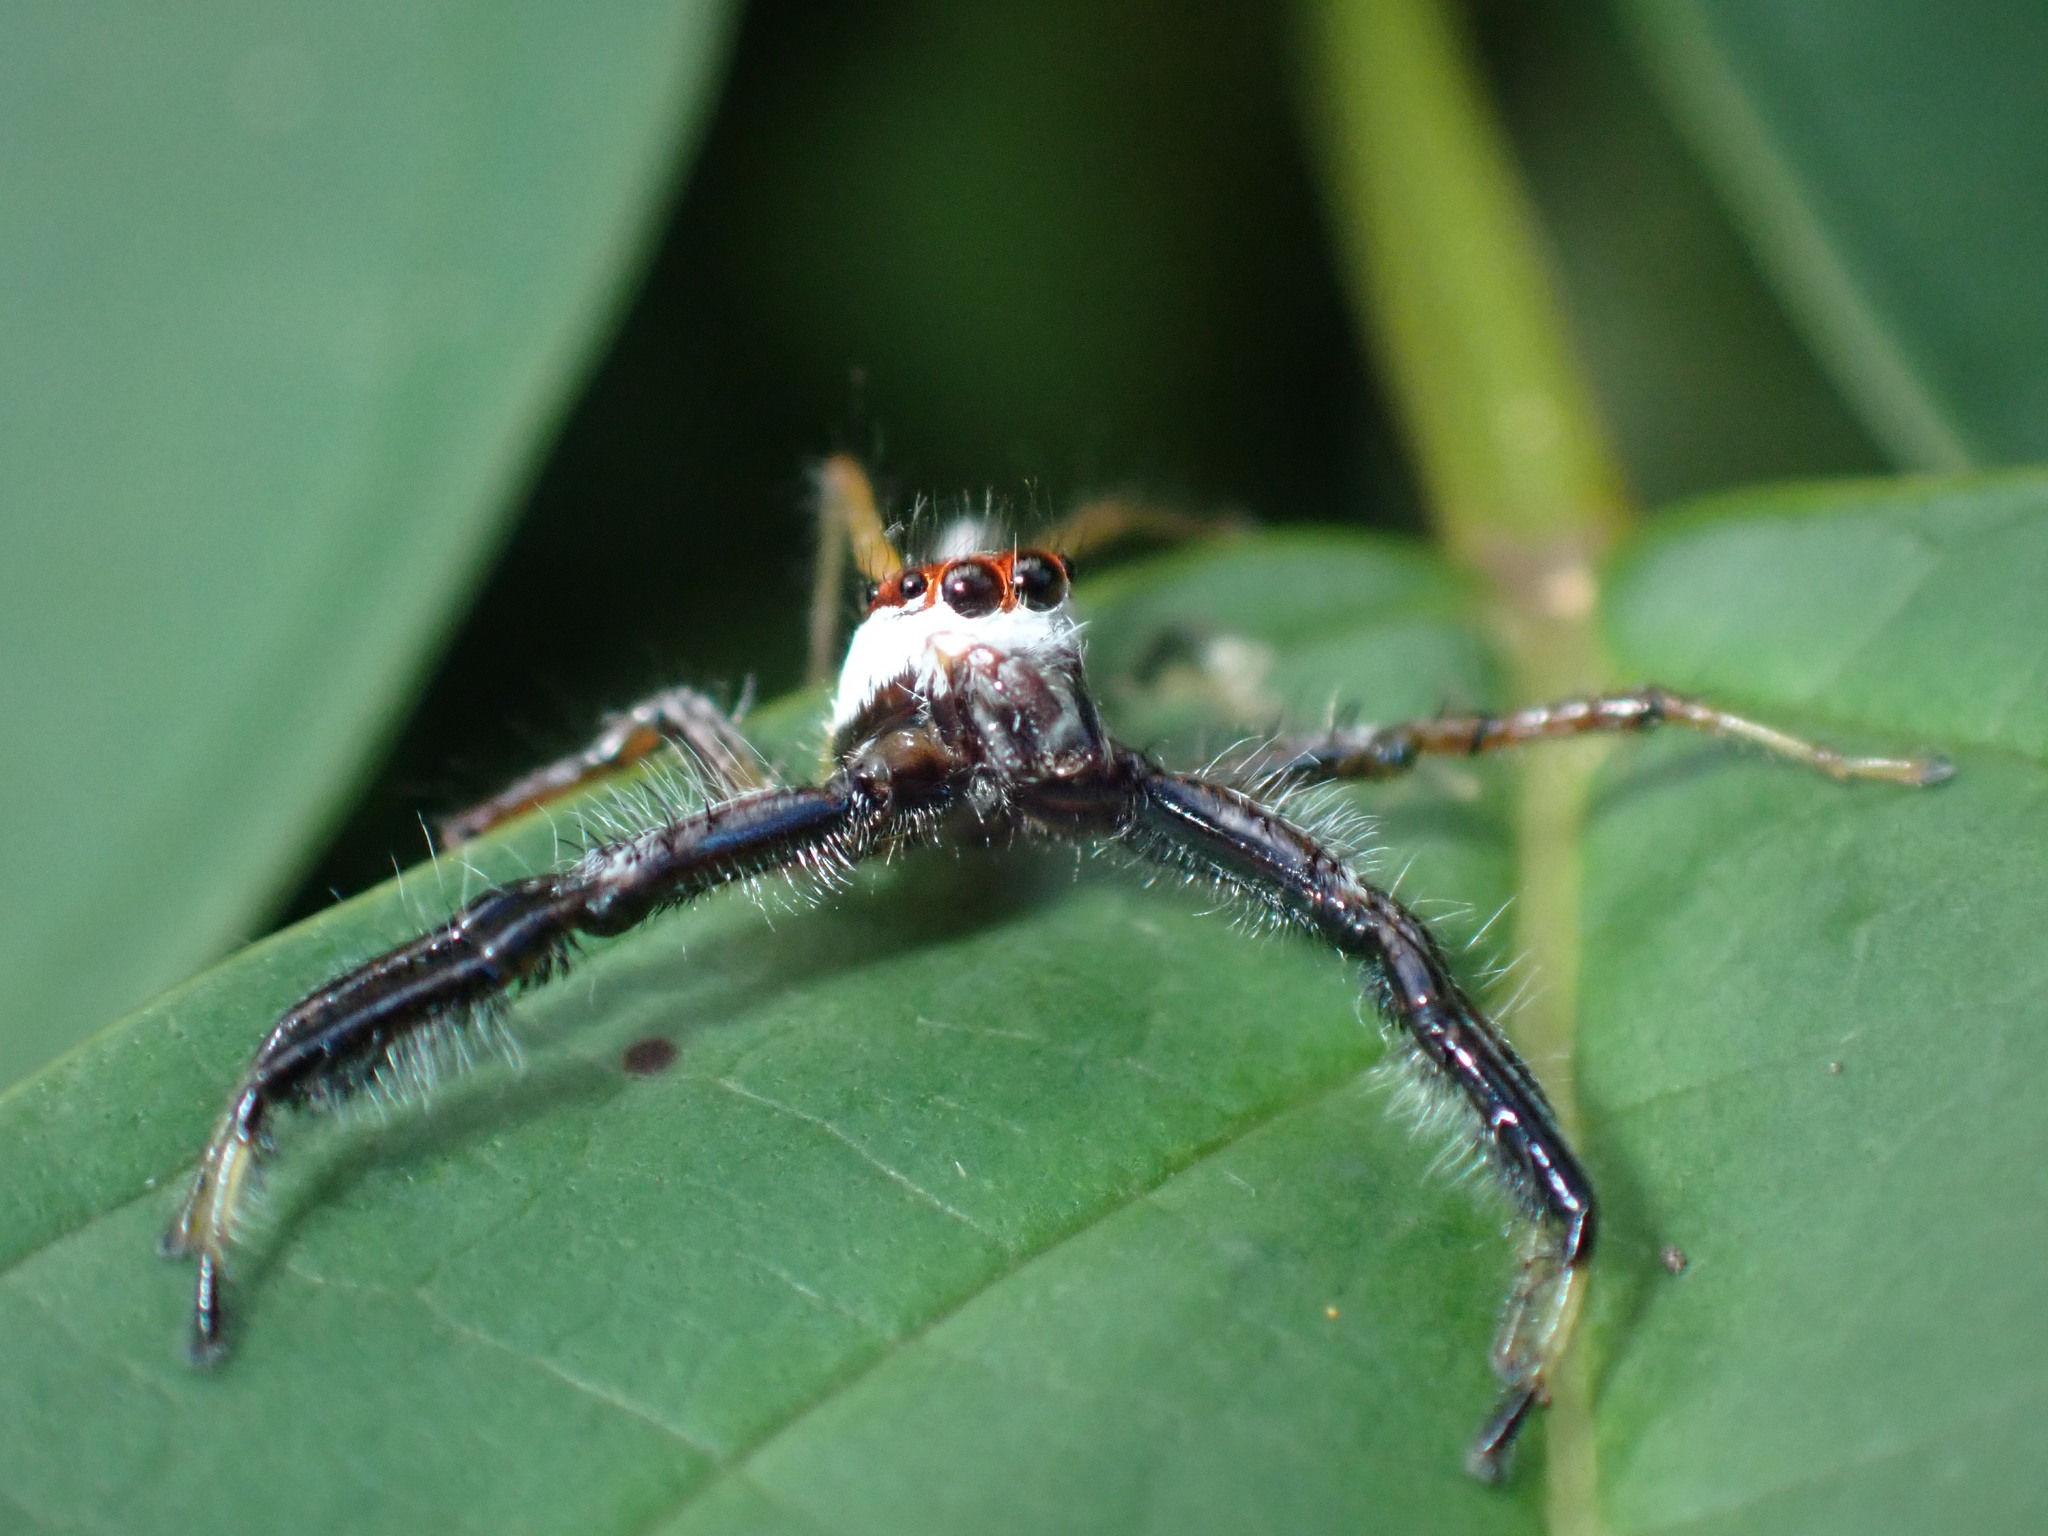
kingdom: Animalia
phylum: Arthropoda
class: Arachnida
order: Araneae
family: Salticidae
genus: Telamonia
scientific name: Telamonia dimidiata
